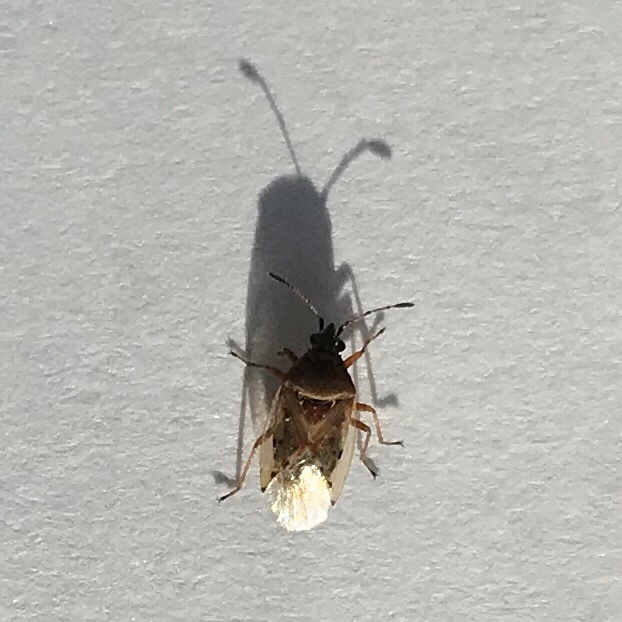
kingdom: Animalia
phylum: Arthropoda
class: Insecta
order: Hemiptera
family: Lygaeidae
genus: Kleidocerys
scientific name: Kleidocerys resedae
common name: Birch catkin bug
